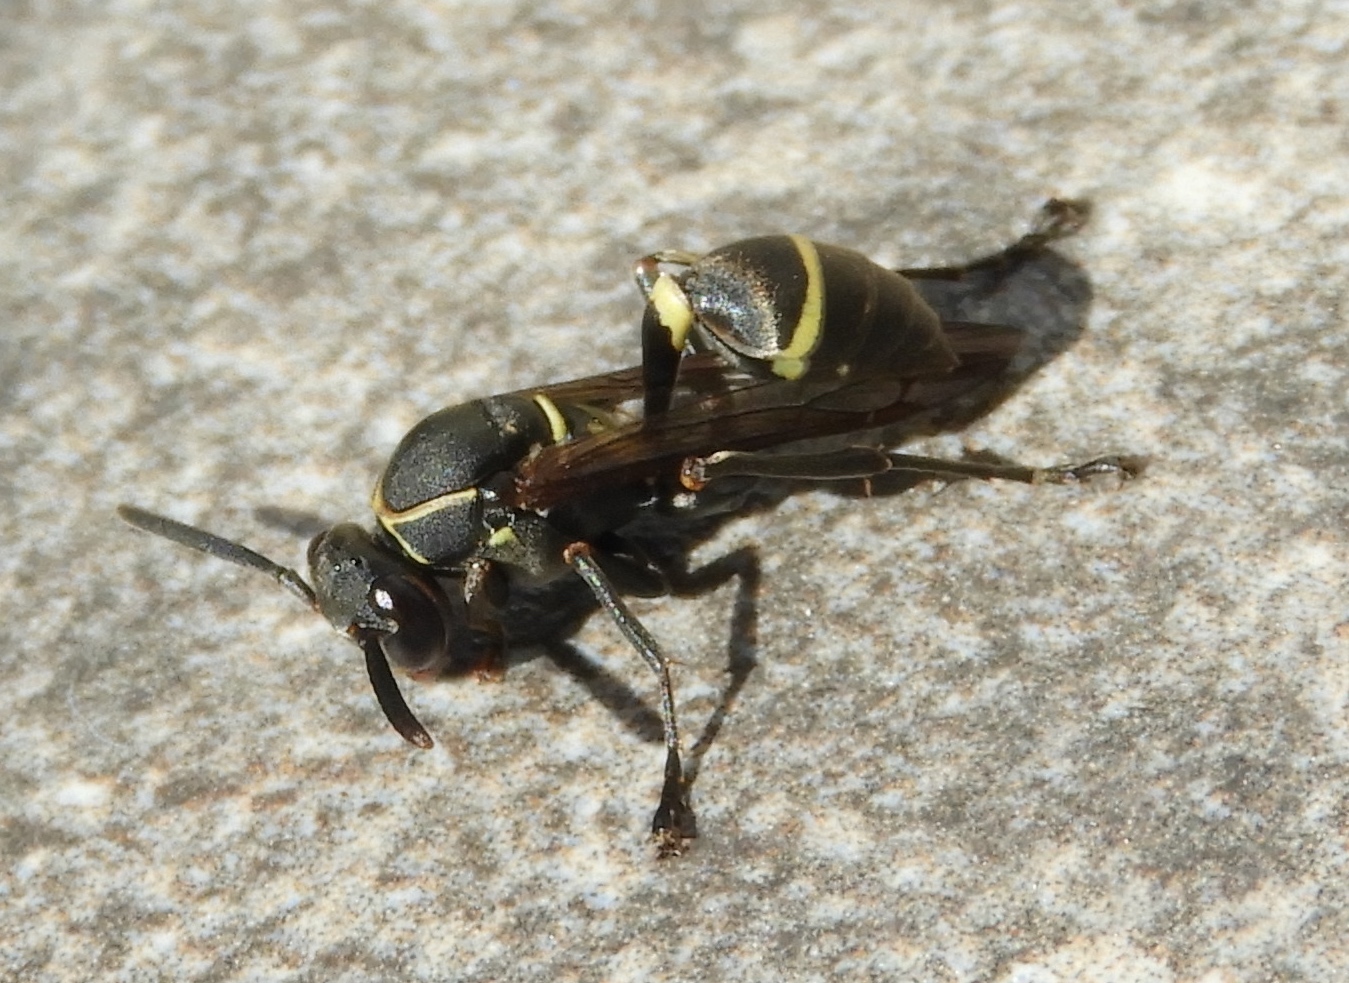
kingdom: Animalia
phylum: Arthropoda
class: Insecta
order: Hymenoptera
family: Vespidae
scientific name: Vespidae
